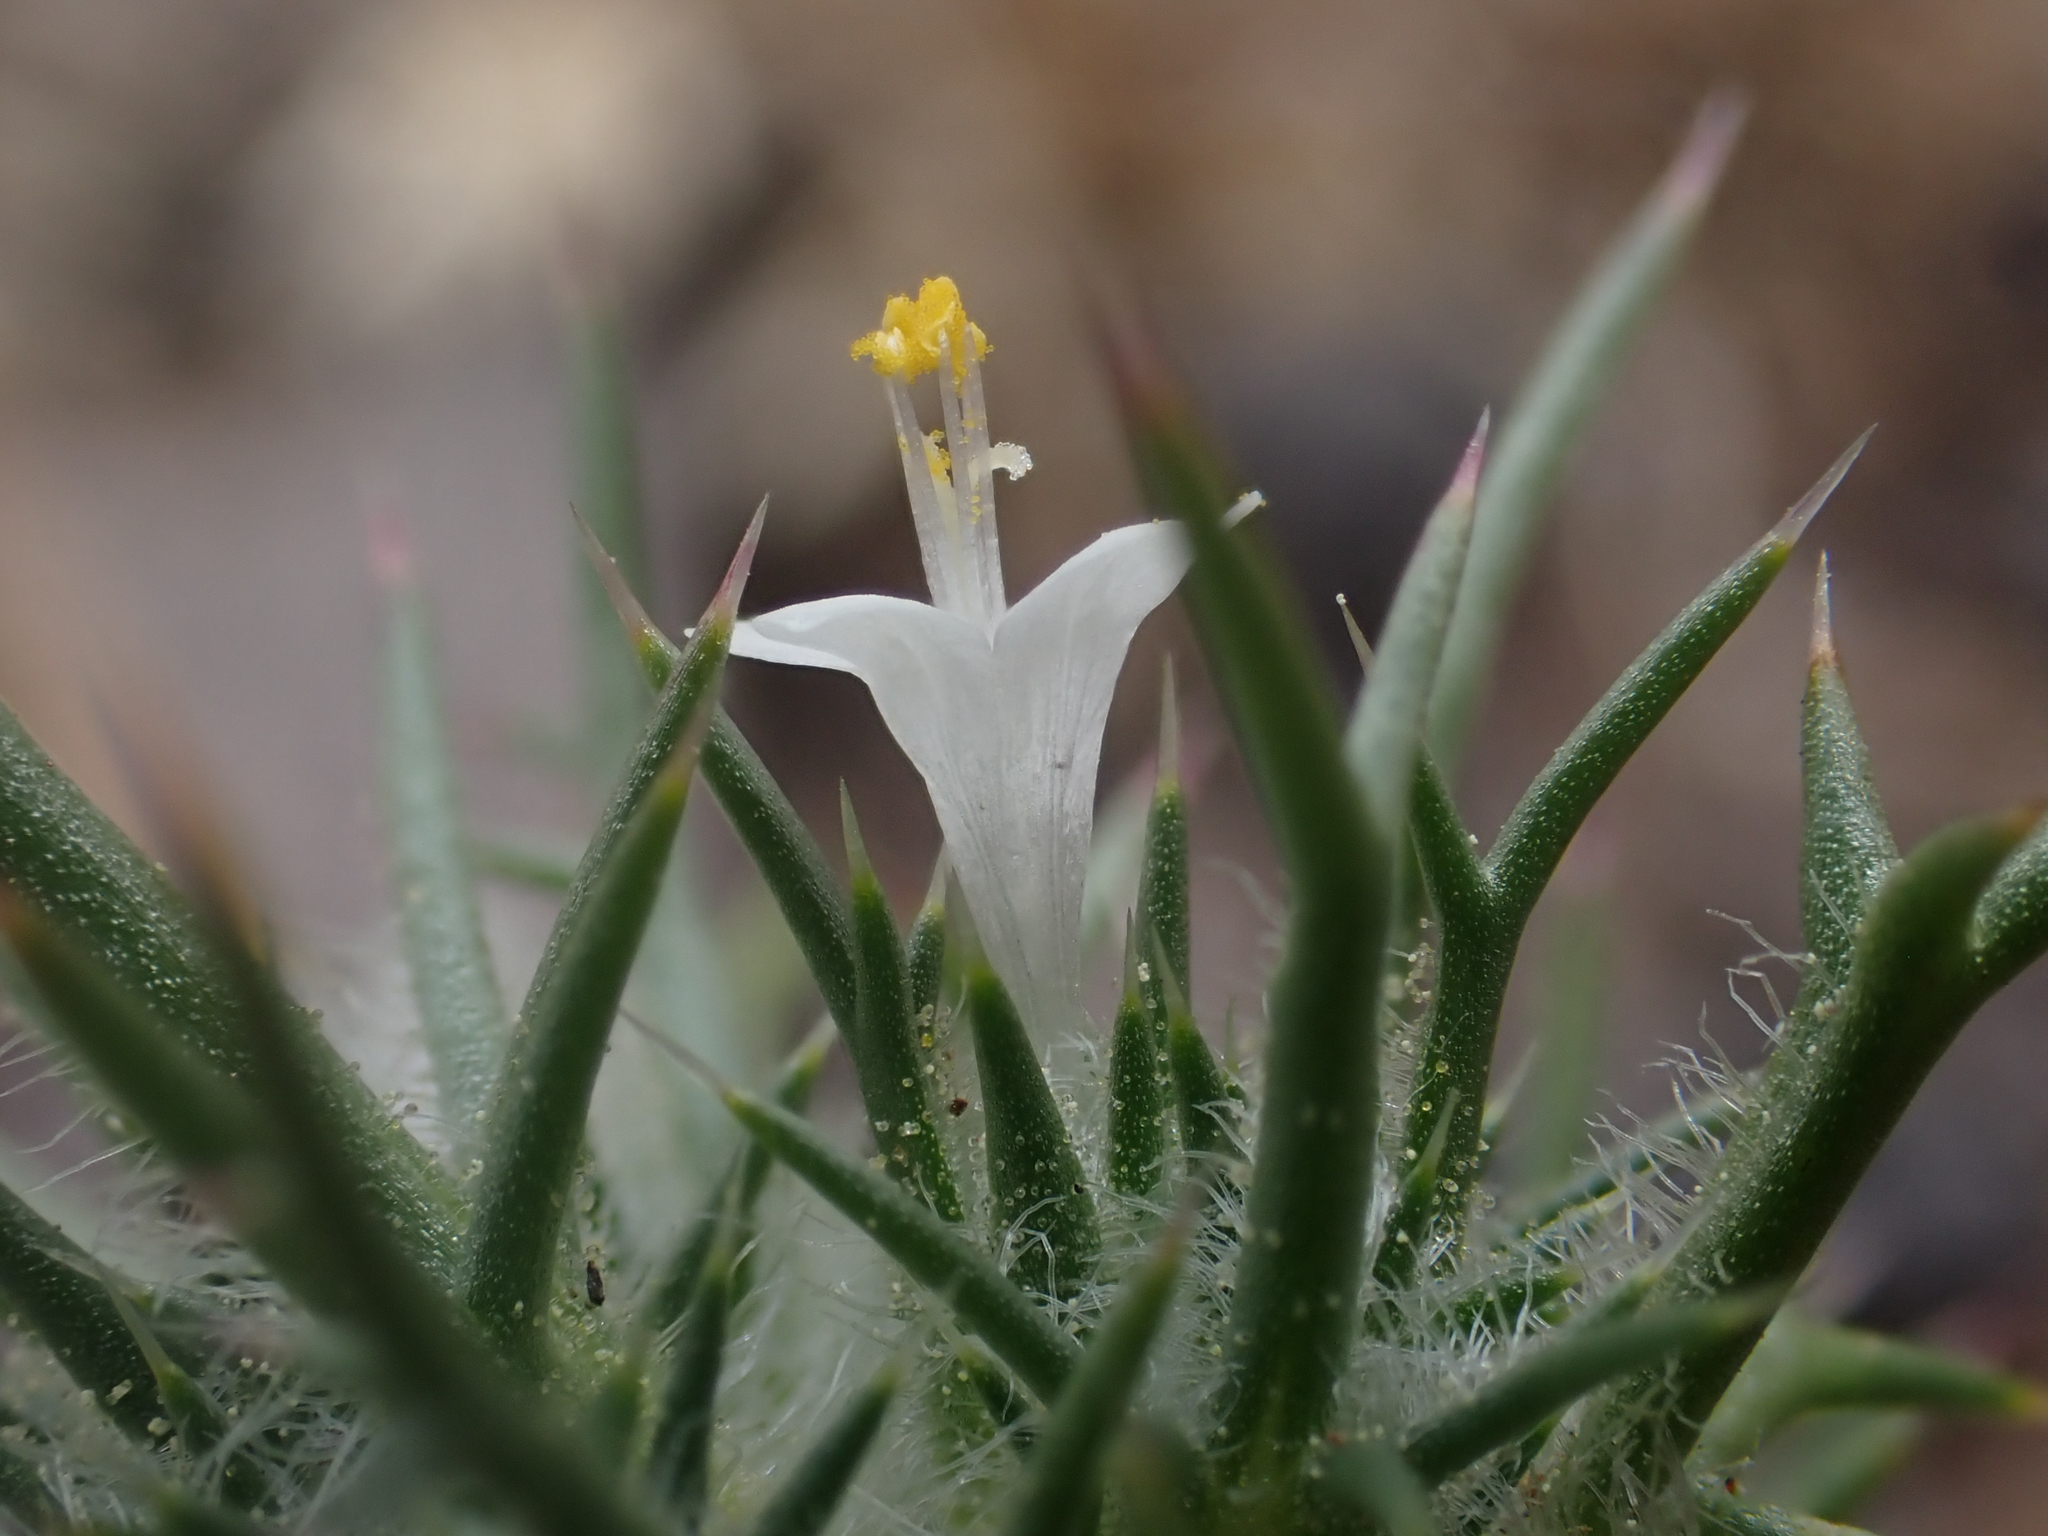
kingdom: Plantae
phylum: Tracheophyta
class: Magnoliopsida
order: Ericales
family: Polemoniaceae
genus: Navarretia
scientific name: Navarretia intertexta
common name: Needle-leaved navarretia
